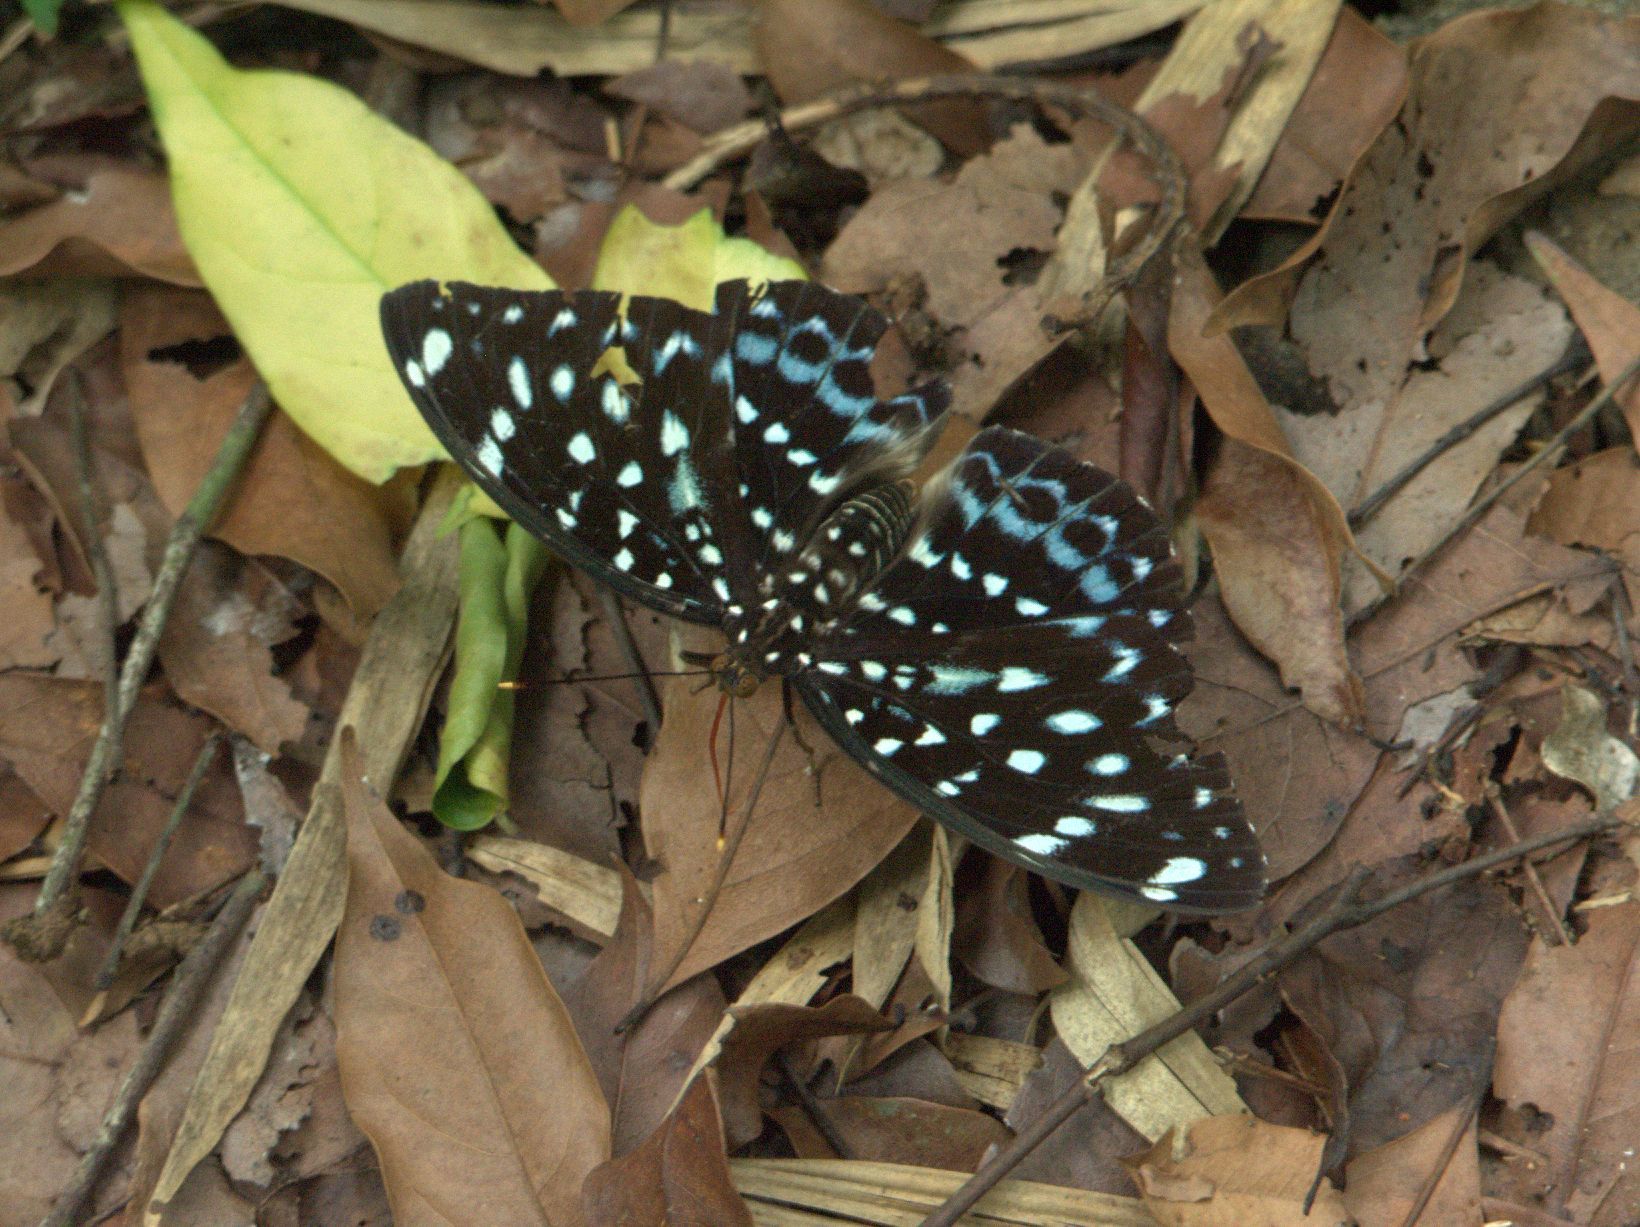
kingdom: Animalia
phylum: Arthropoda
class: Insecta
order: Lepidoptera
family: Nymphalidae
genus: Lexias
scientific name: Lexias pardalis
